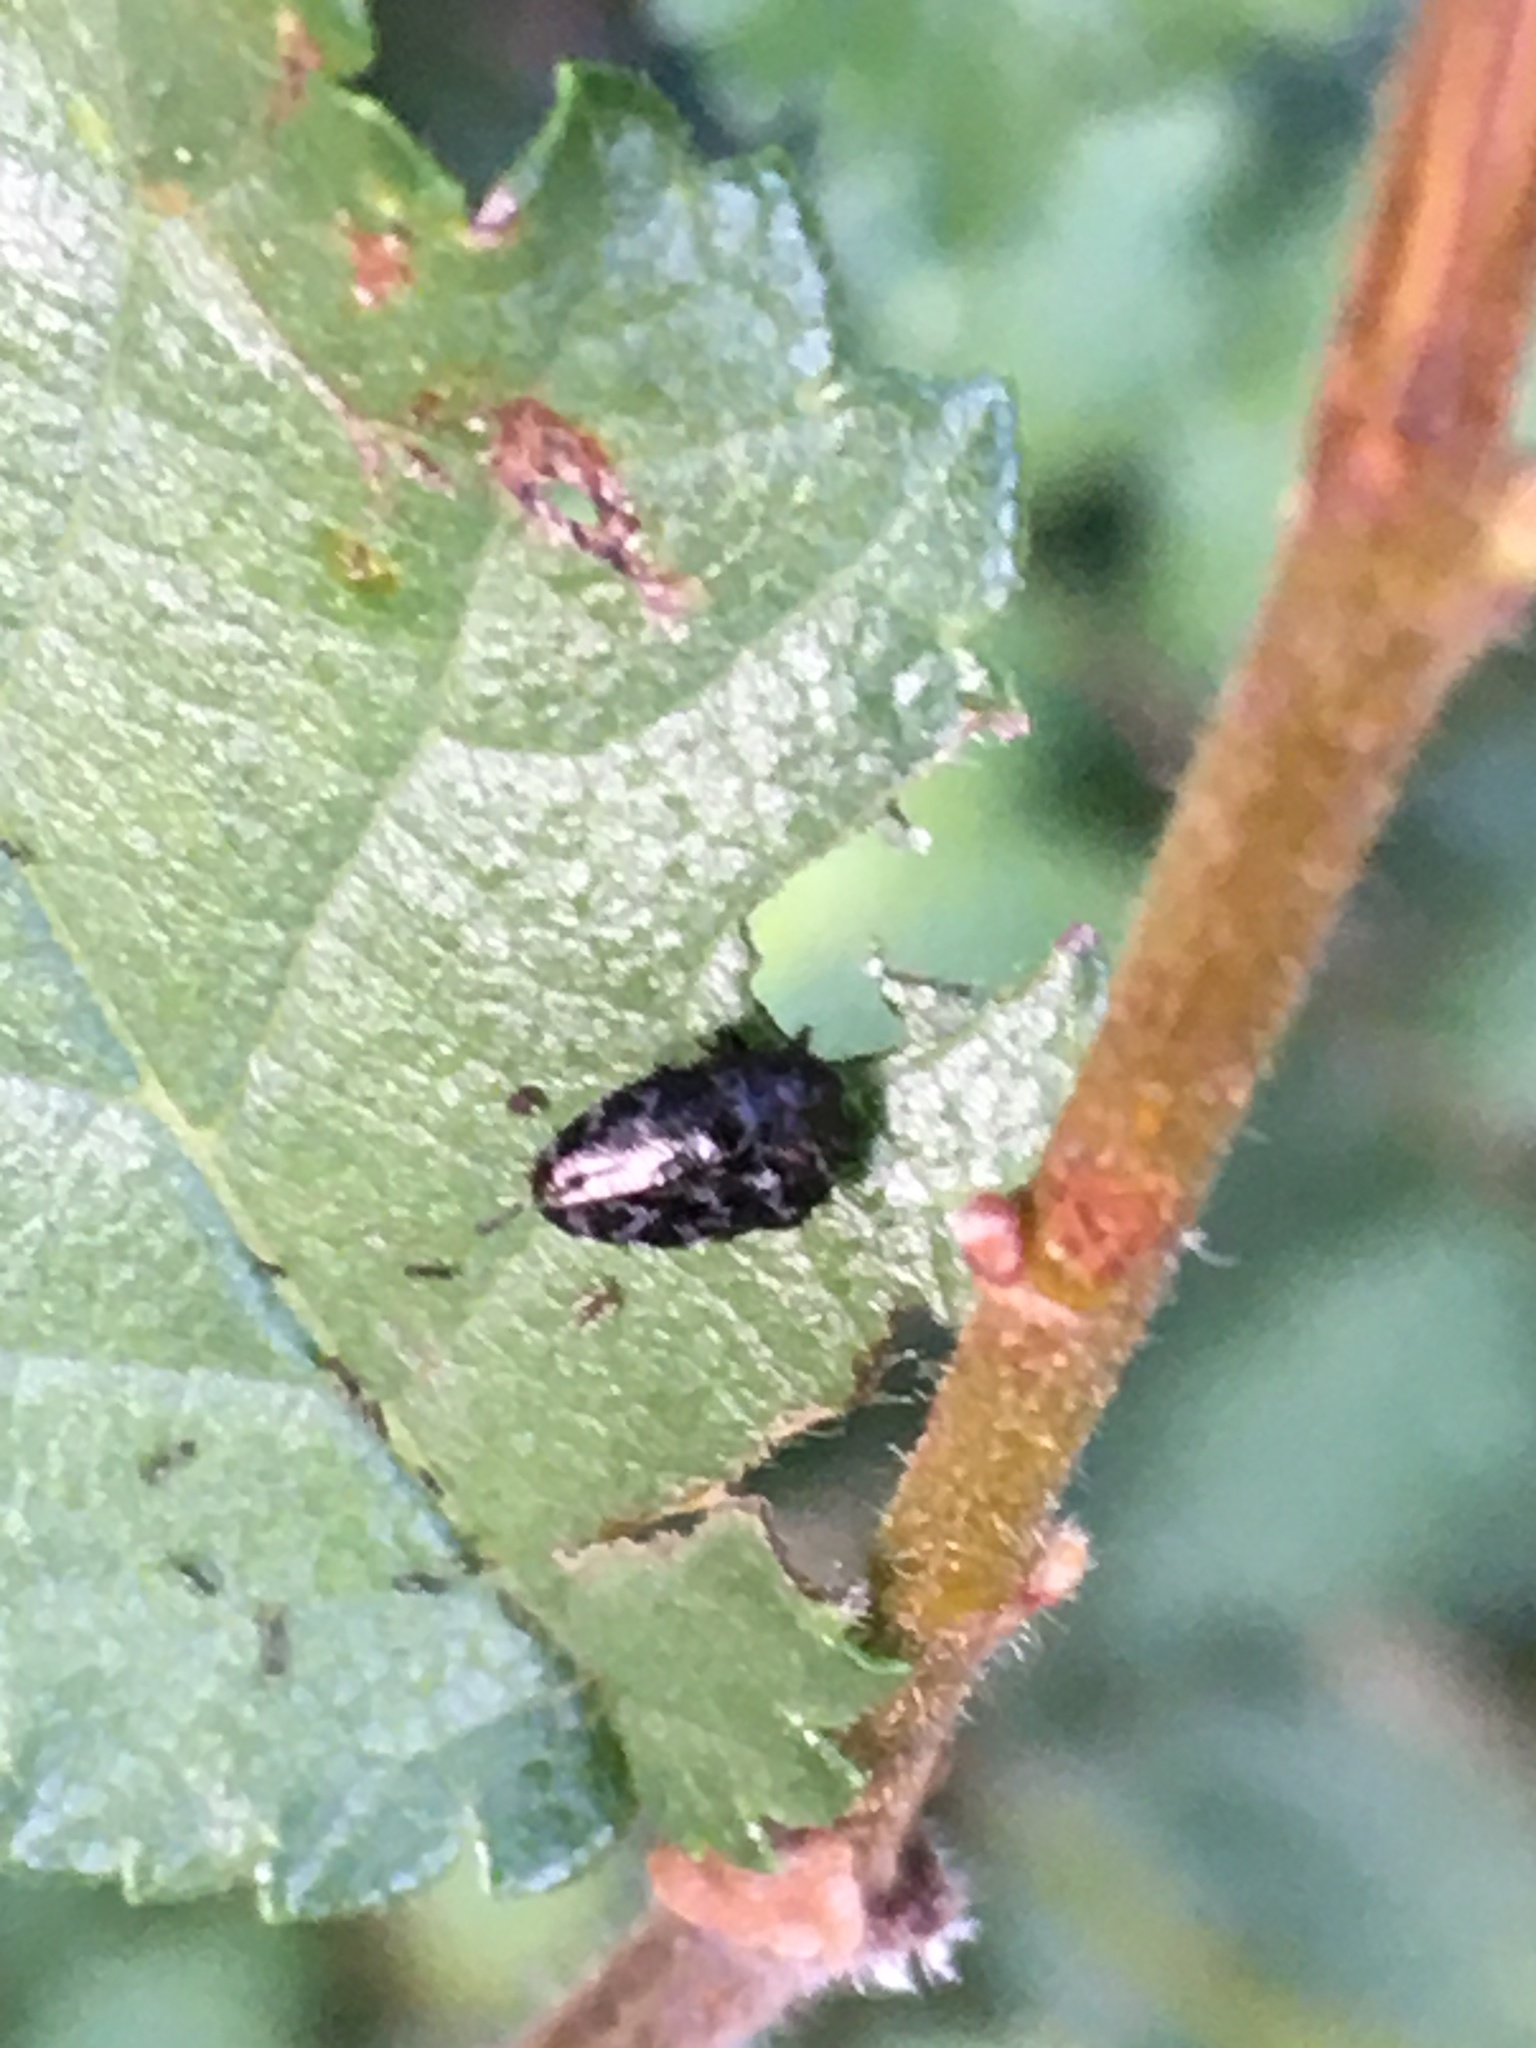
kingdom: Animalia
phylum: Arthropoda
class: Insecta
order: Coleoptera
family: Buprestidae
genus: Trachys
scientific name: Trachys minutus
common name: Metallic wood-boring beetle
